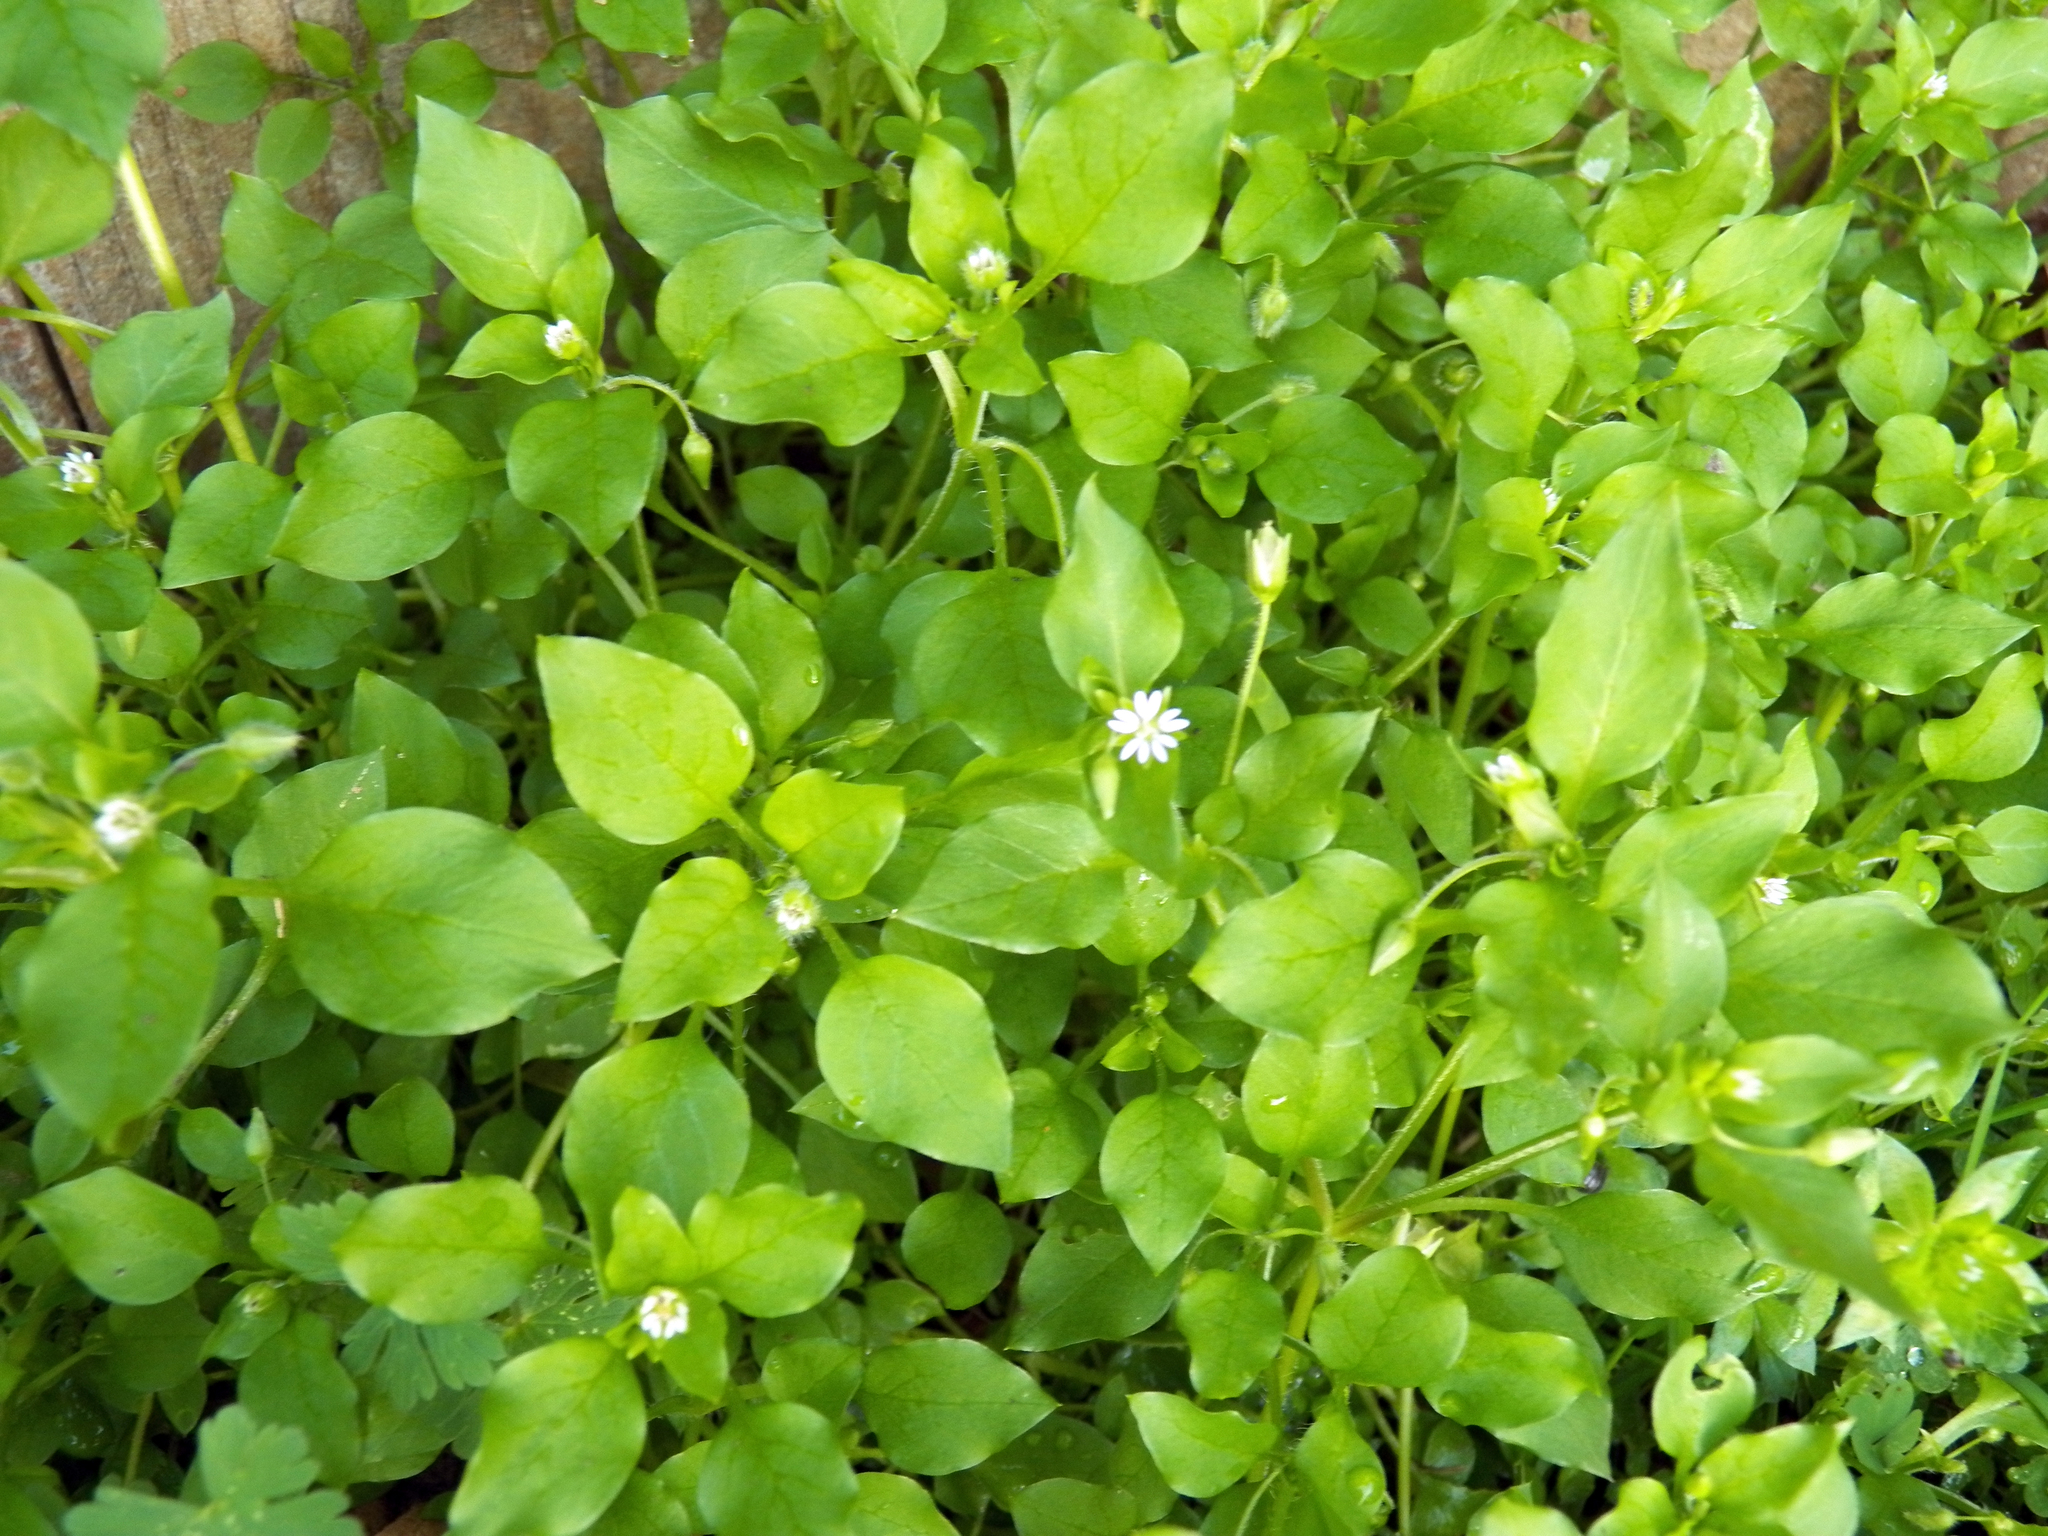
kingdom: Plantae
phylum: Tracheophyta
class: Magnoliopsida
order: Caryophyllales
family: Caryophyllaceae
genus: Stellaria
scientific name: Stellaria media
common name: Common chickweed
